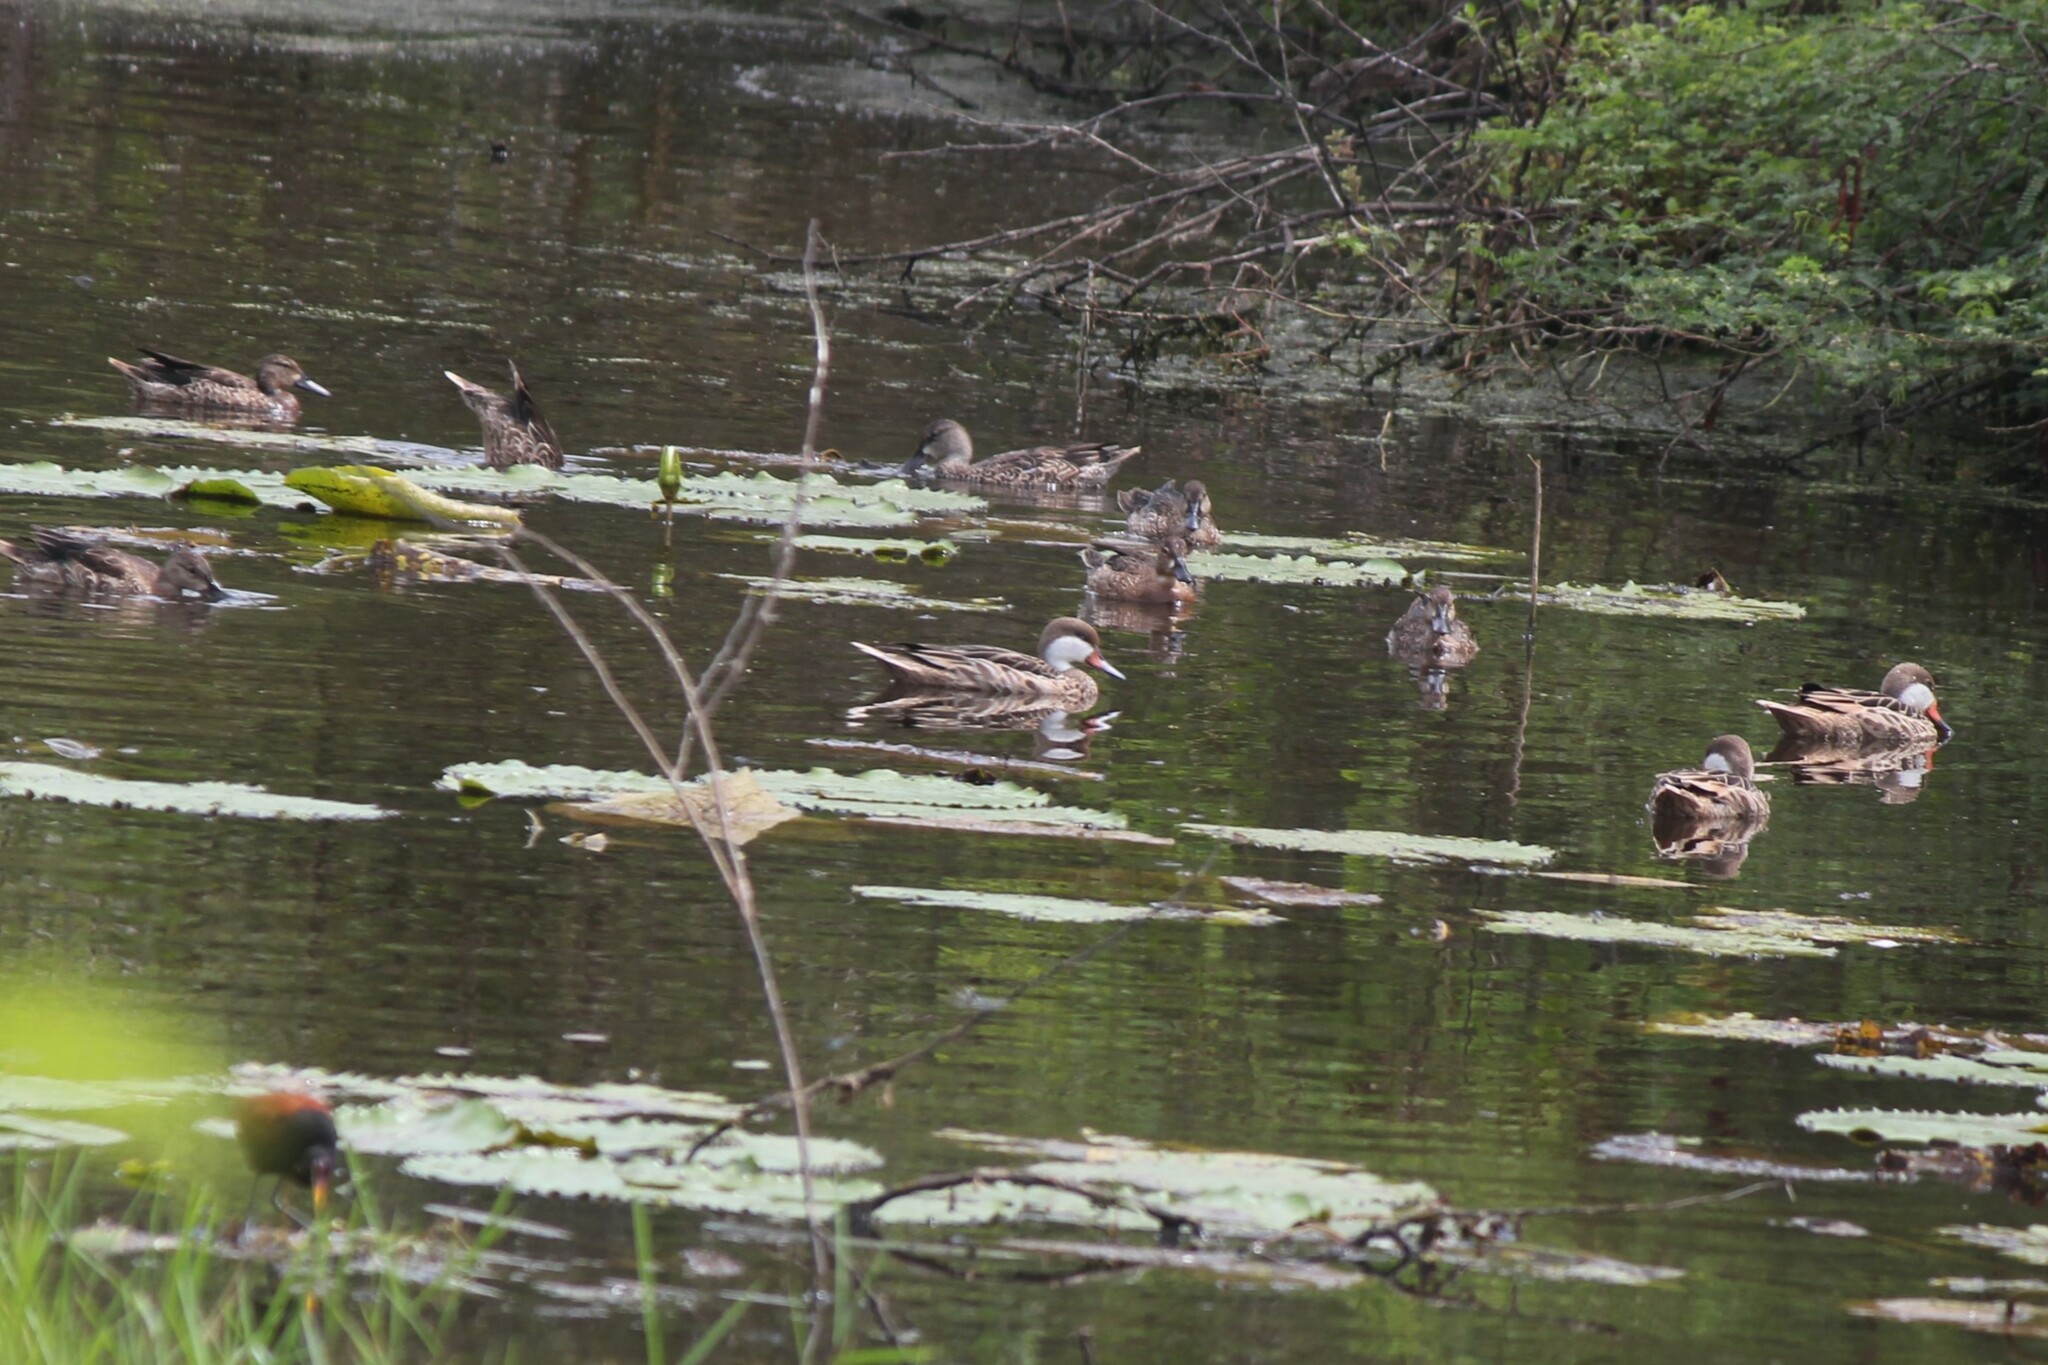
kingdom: Animalia
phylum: Chordata
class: Aves
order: Anseriformes
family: Anatidae
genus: Anas
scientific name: Anas bahamensis
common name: White-cheeked pintail
